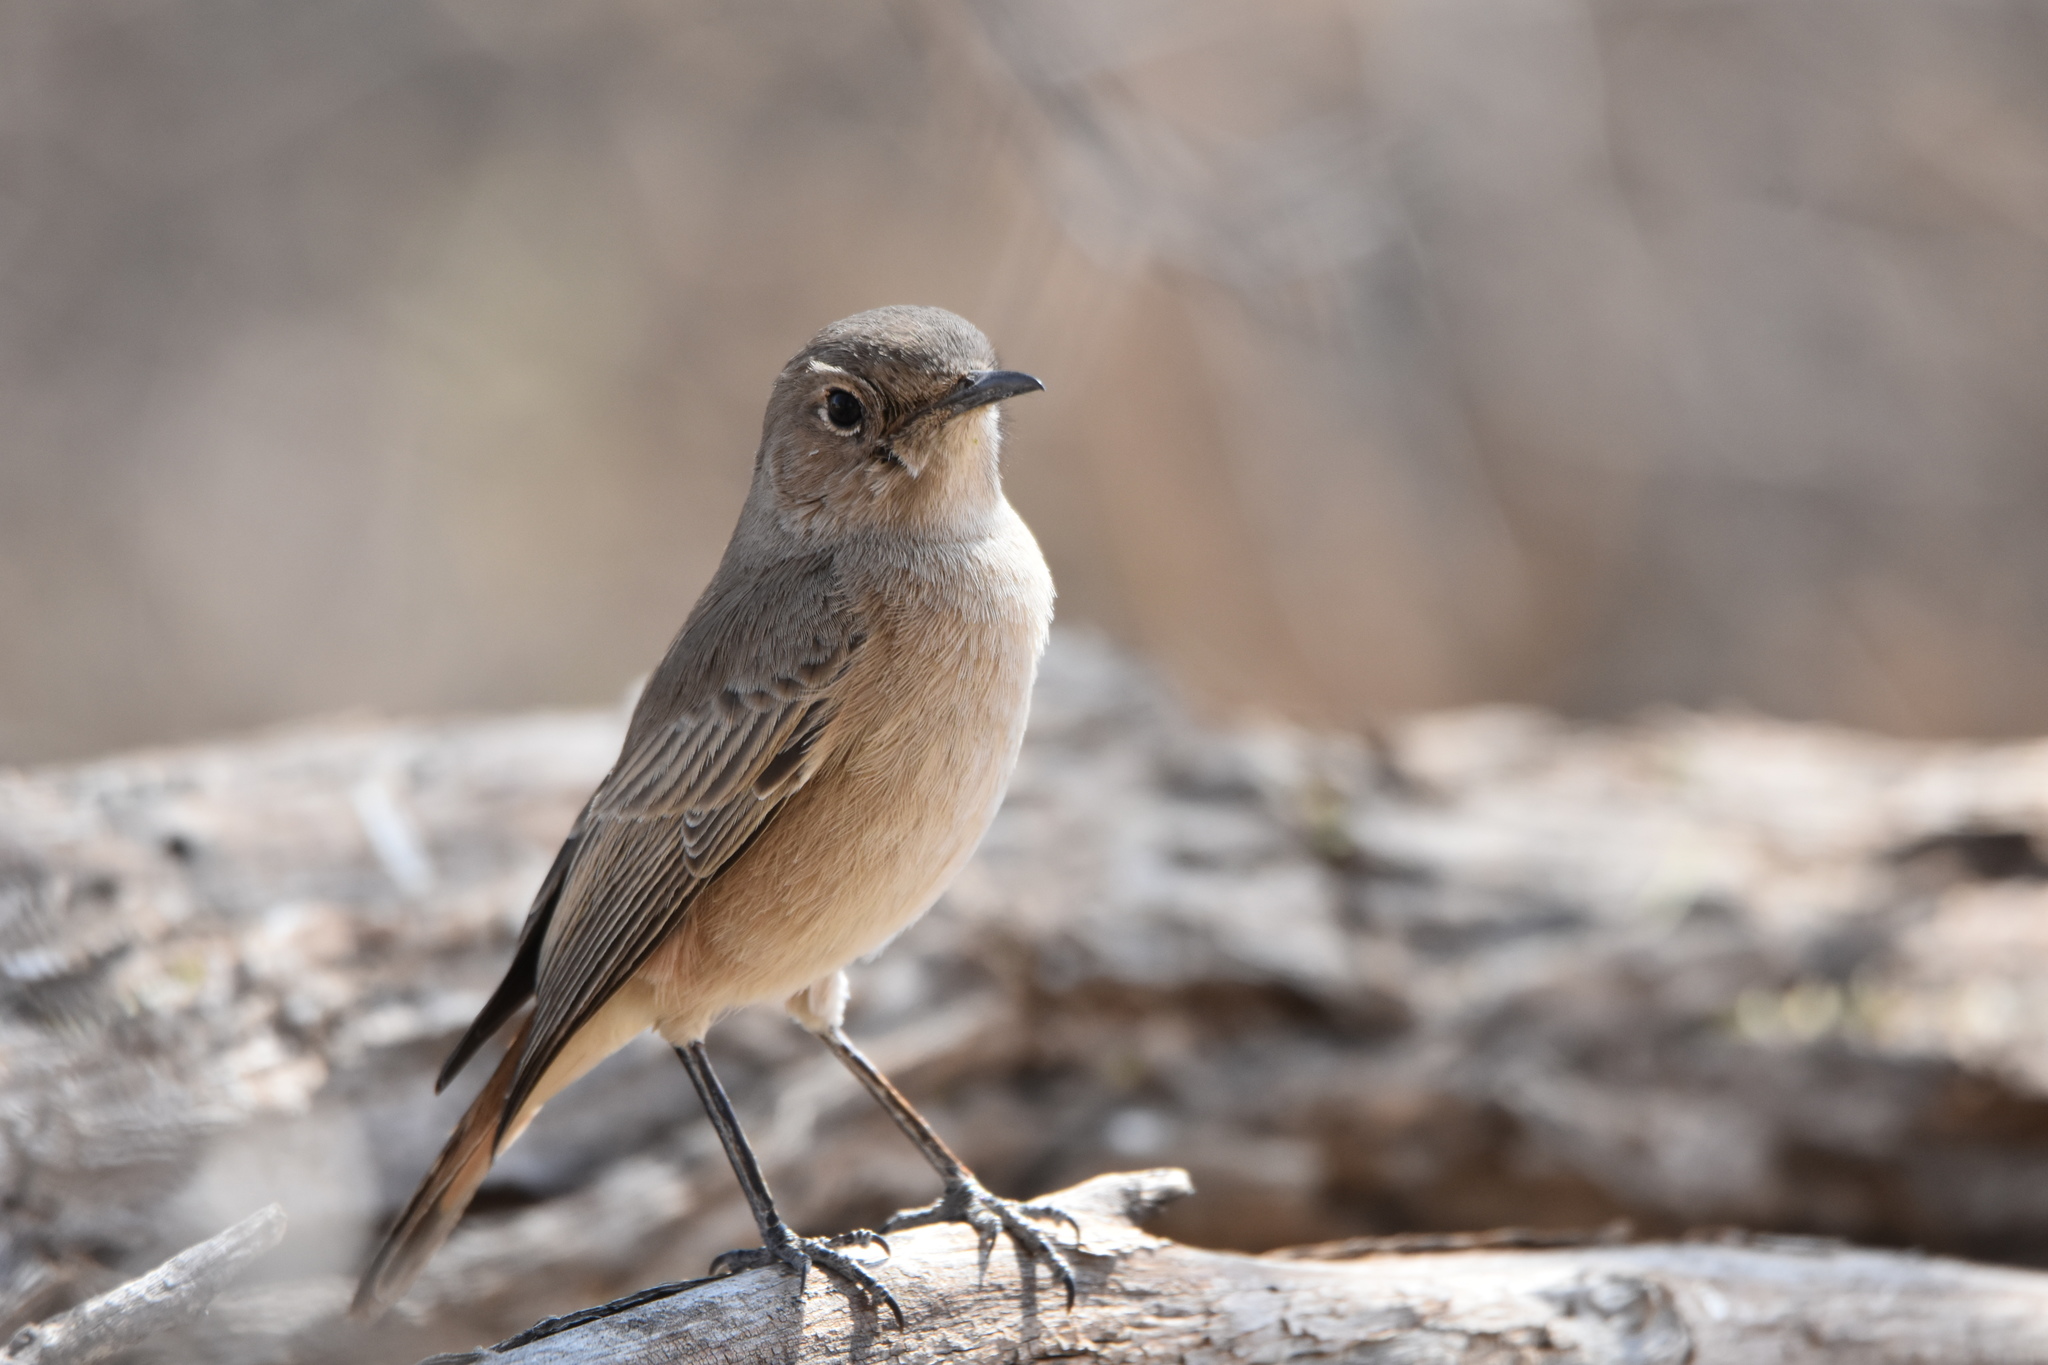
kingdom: Animalia
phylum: Chordata
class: Aves
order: Passeriformes
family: Muscicapidae
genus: Oenanthe
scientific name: Oenanthe familiaris
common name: Familiar chat
